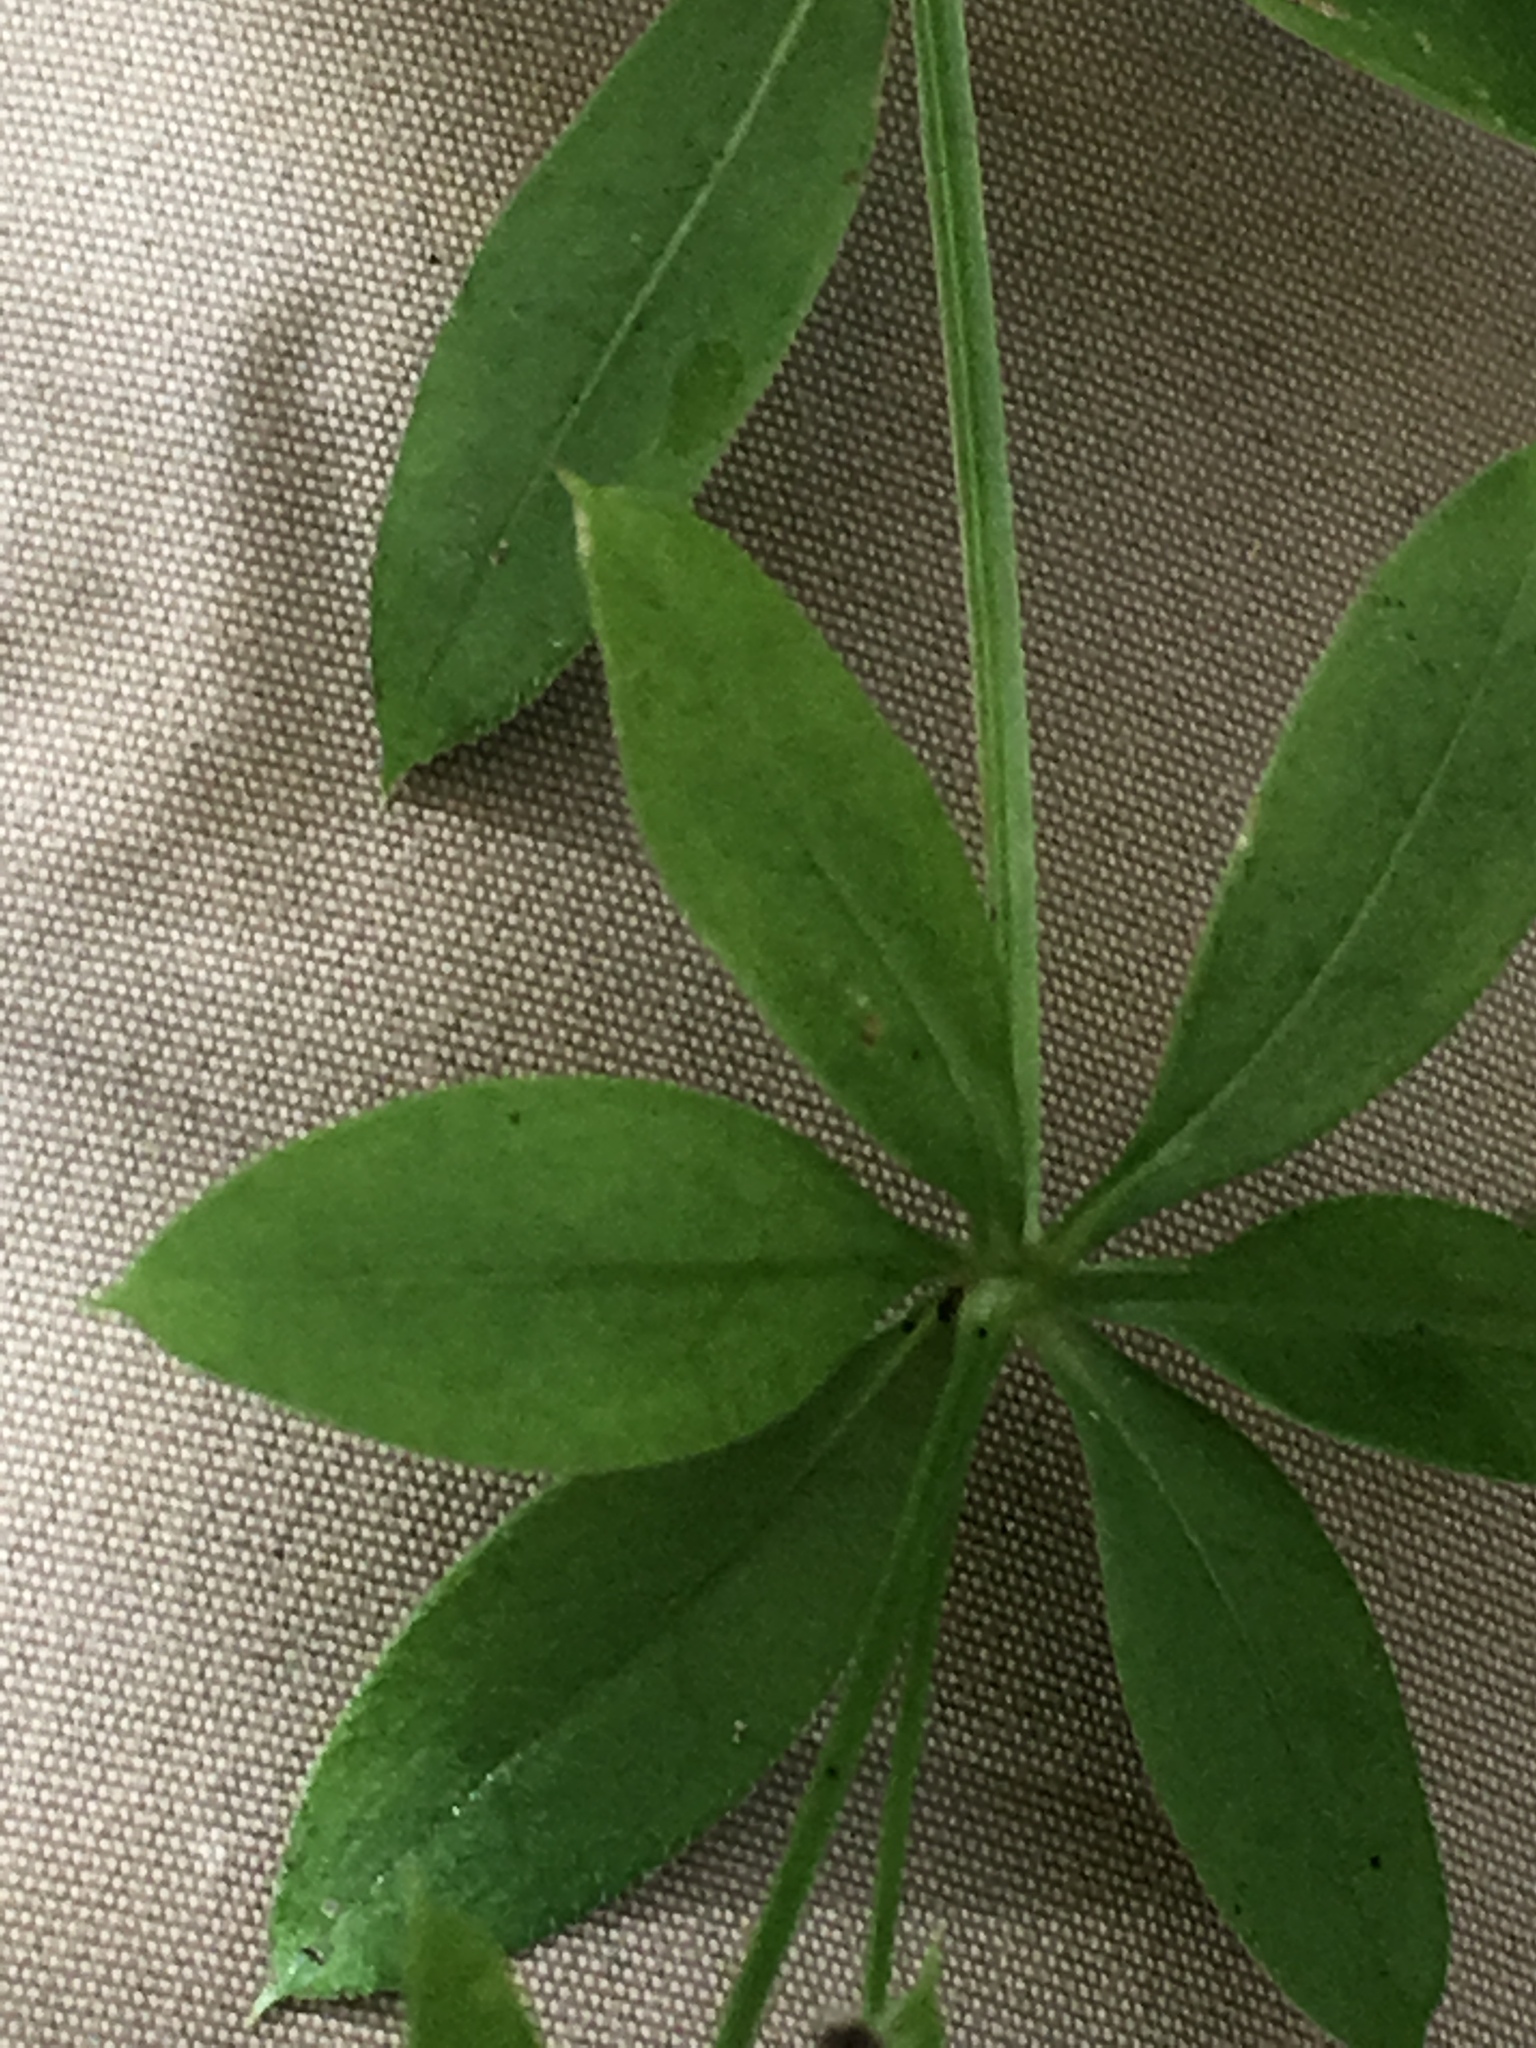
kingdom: Plantae
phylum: Tracheophyta
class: Magnoliopsida
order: Gentianales
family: Rubiaceae
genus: Galium
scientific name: Galium triflorum
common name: Fragrant bedstraw
